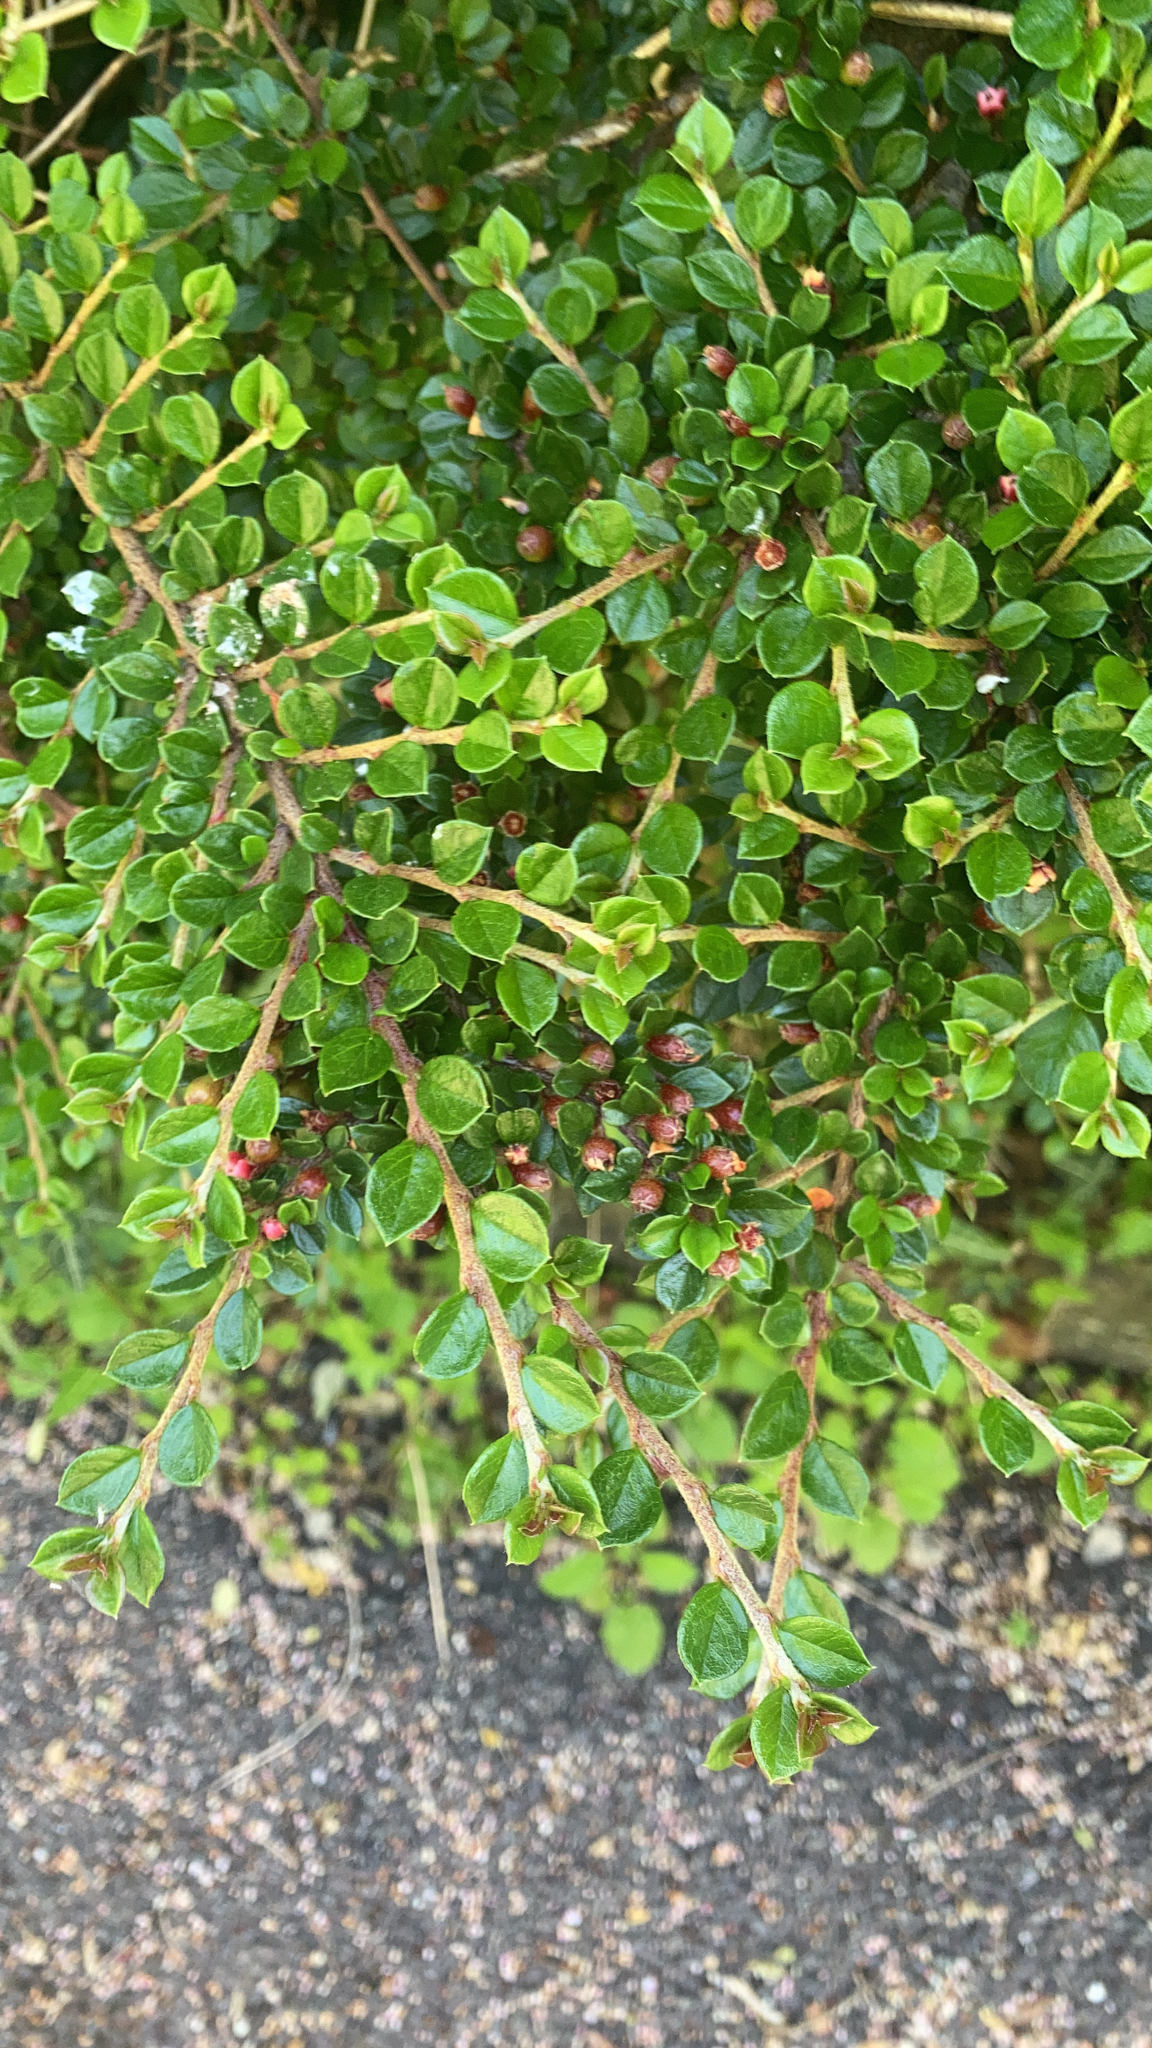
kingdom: Plantae
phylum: Tracheophyta
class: Magnoliopsida
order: Rosales
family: Rosaceae
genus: Cotoneaster
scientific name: Cotoneaster horizontalis
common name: Wall cotoneaster
